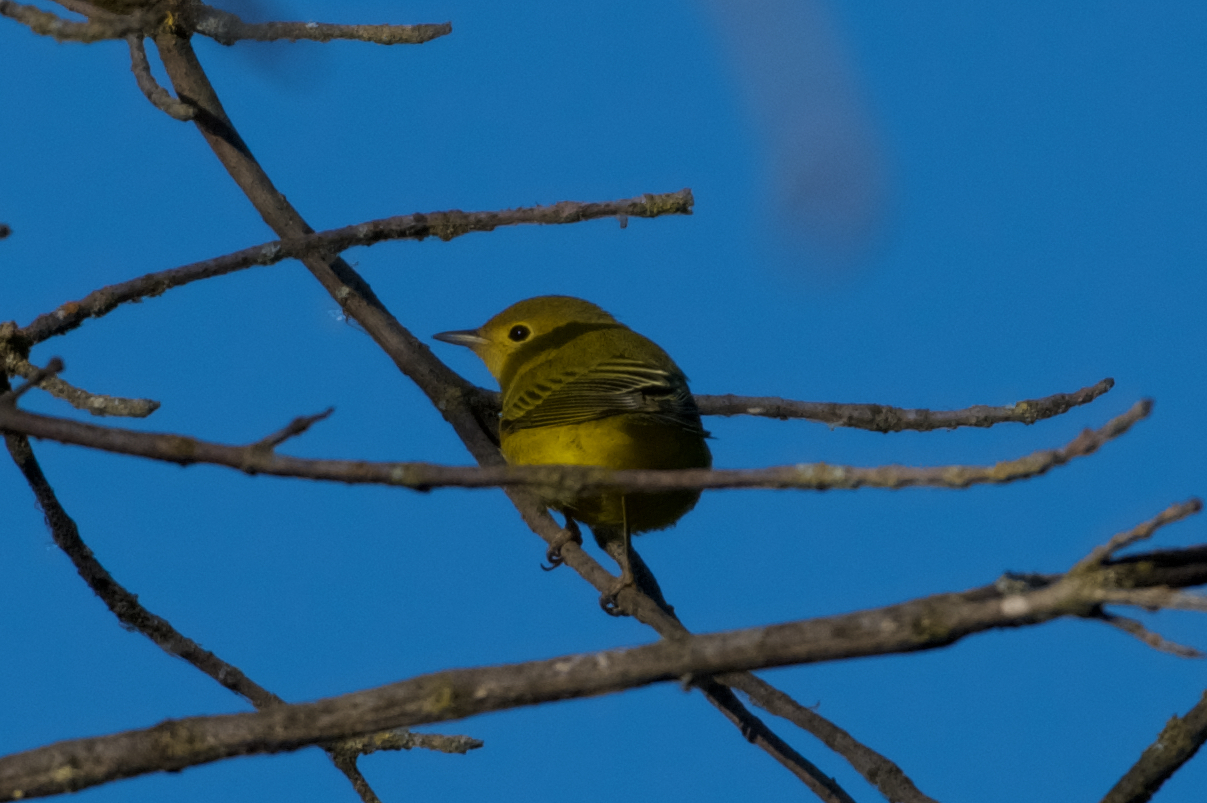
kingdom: Animalia
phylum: Chordata
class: Aves
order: Passeriformes
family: Parulidae
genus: Setophaga
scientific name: Setophaga petechia
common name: Yellow warbler
